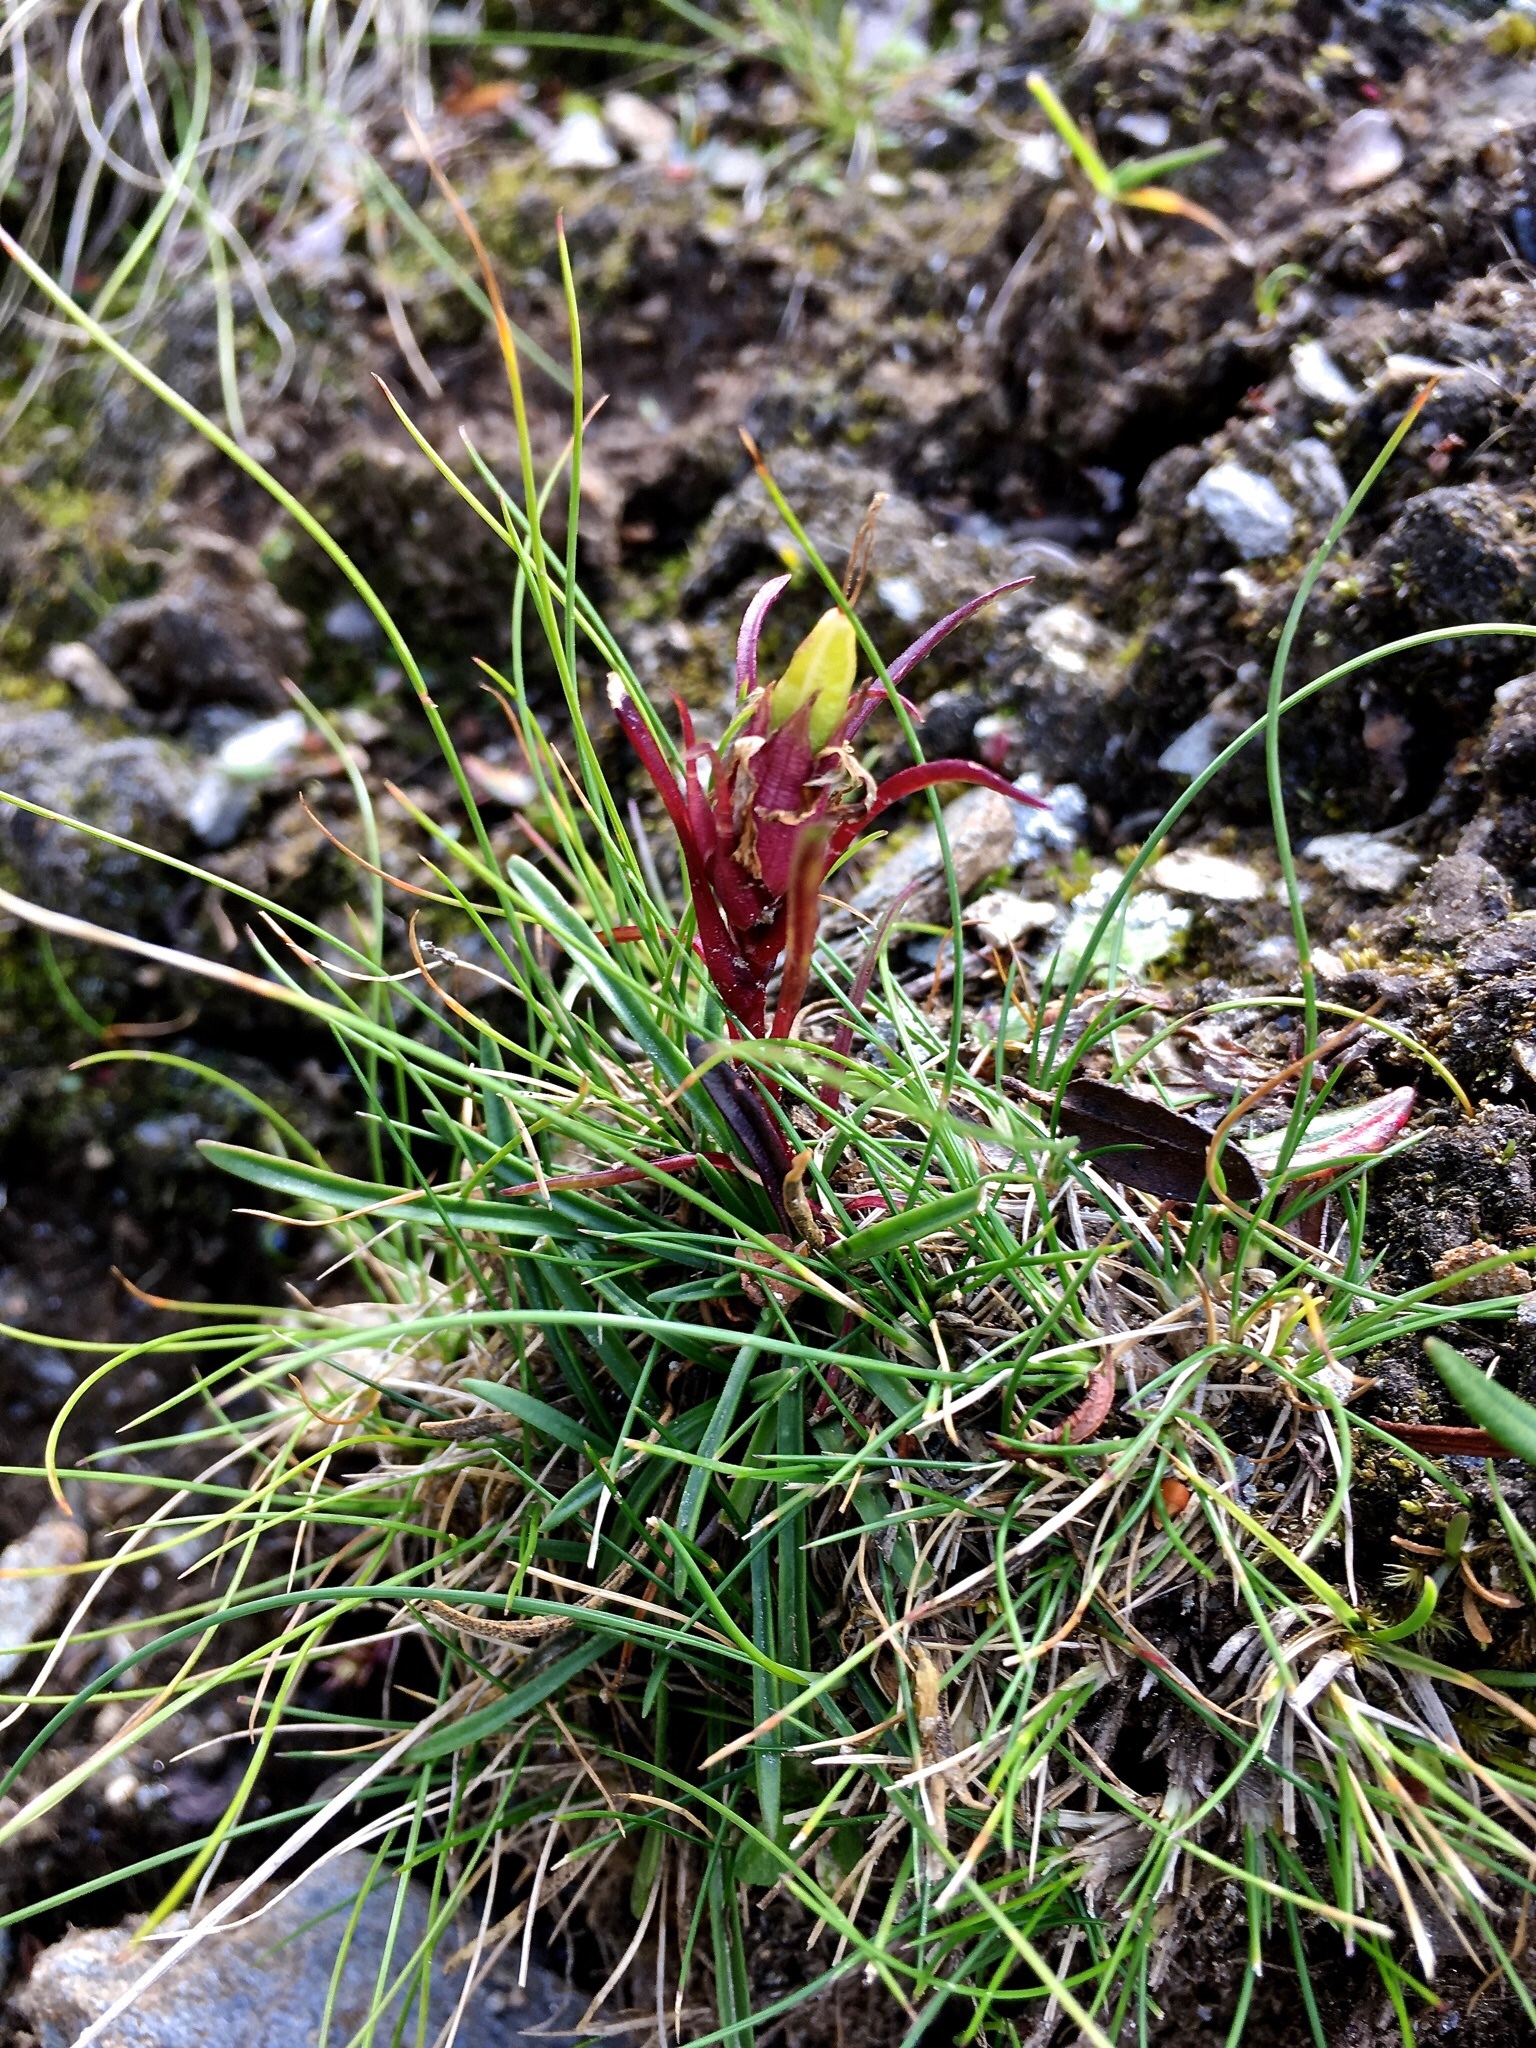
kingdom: Plantae
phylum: Tracheophyta
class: Magnoliopsida
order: Caryophyllales
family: Caryophyllaceae
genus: Dianthus
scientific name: Dianthus glacialis
